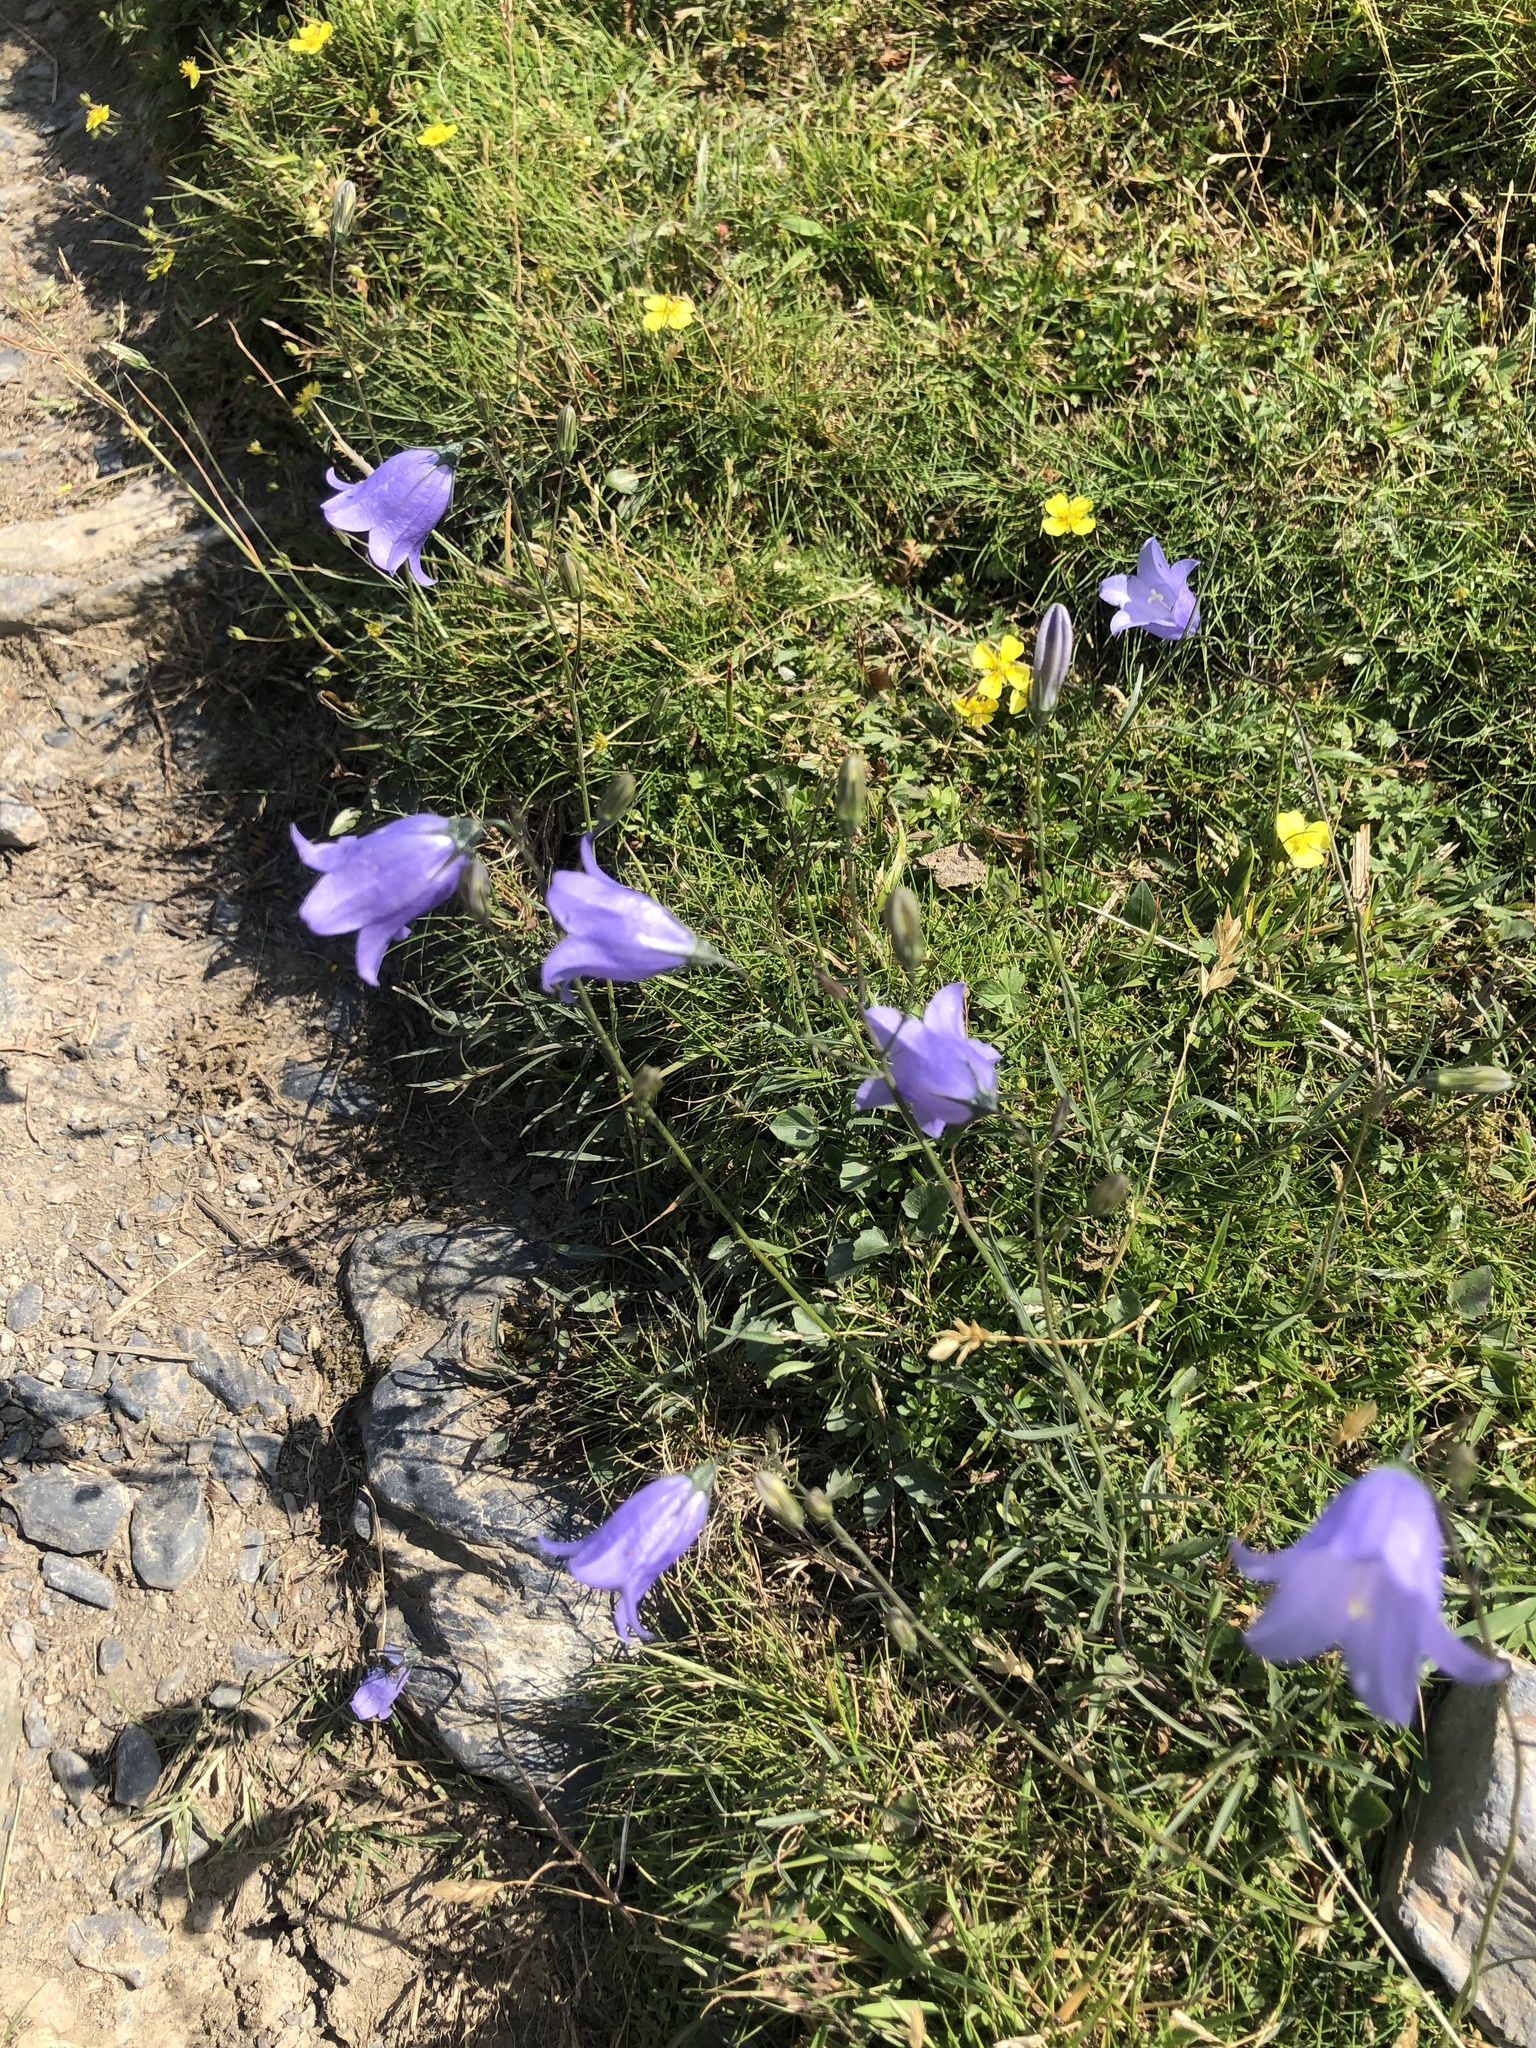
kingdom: Plantae
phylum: Tracheophyta
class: Magnoliopsida
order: Asterales
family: Campanulaceae
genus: Campanula
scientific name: Campanula rotundifolia
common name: Harebell
